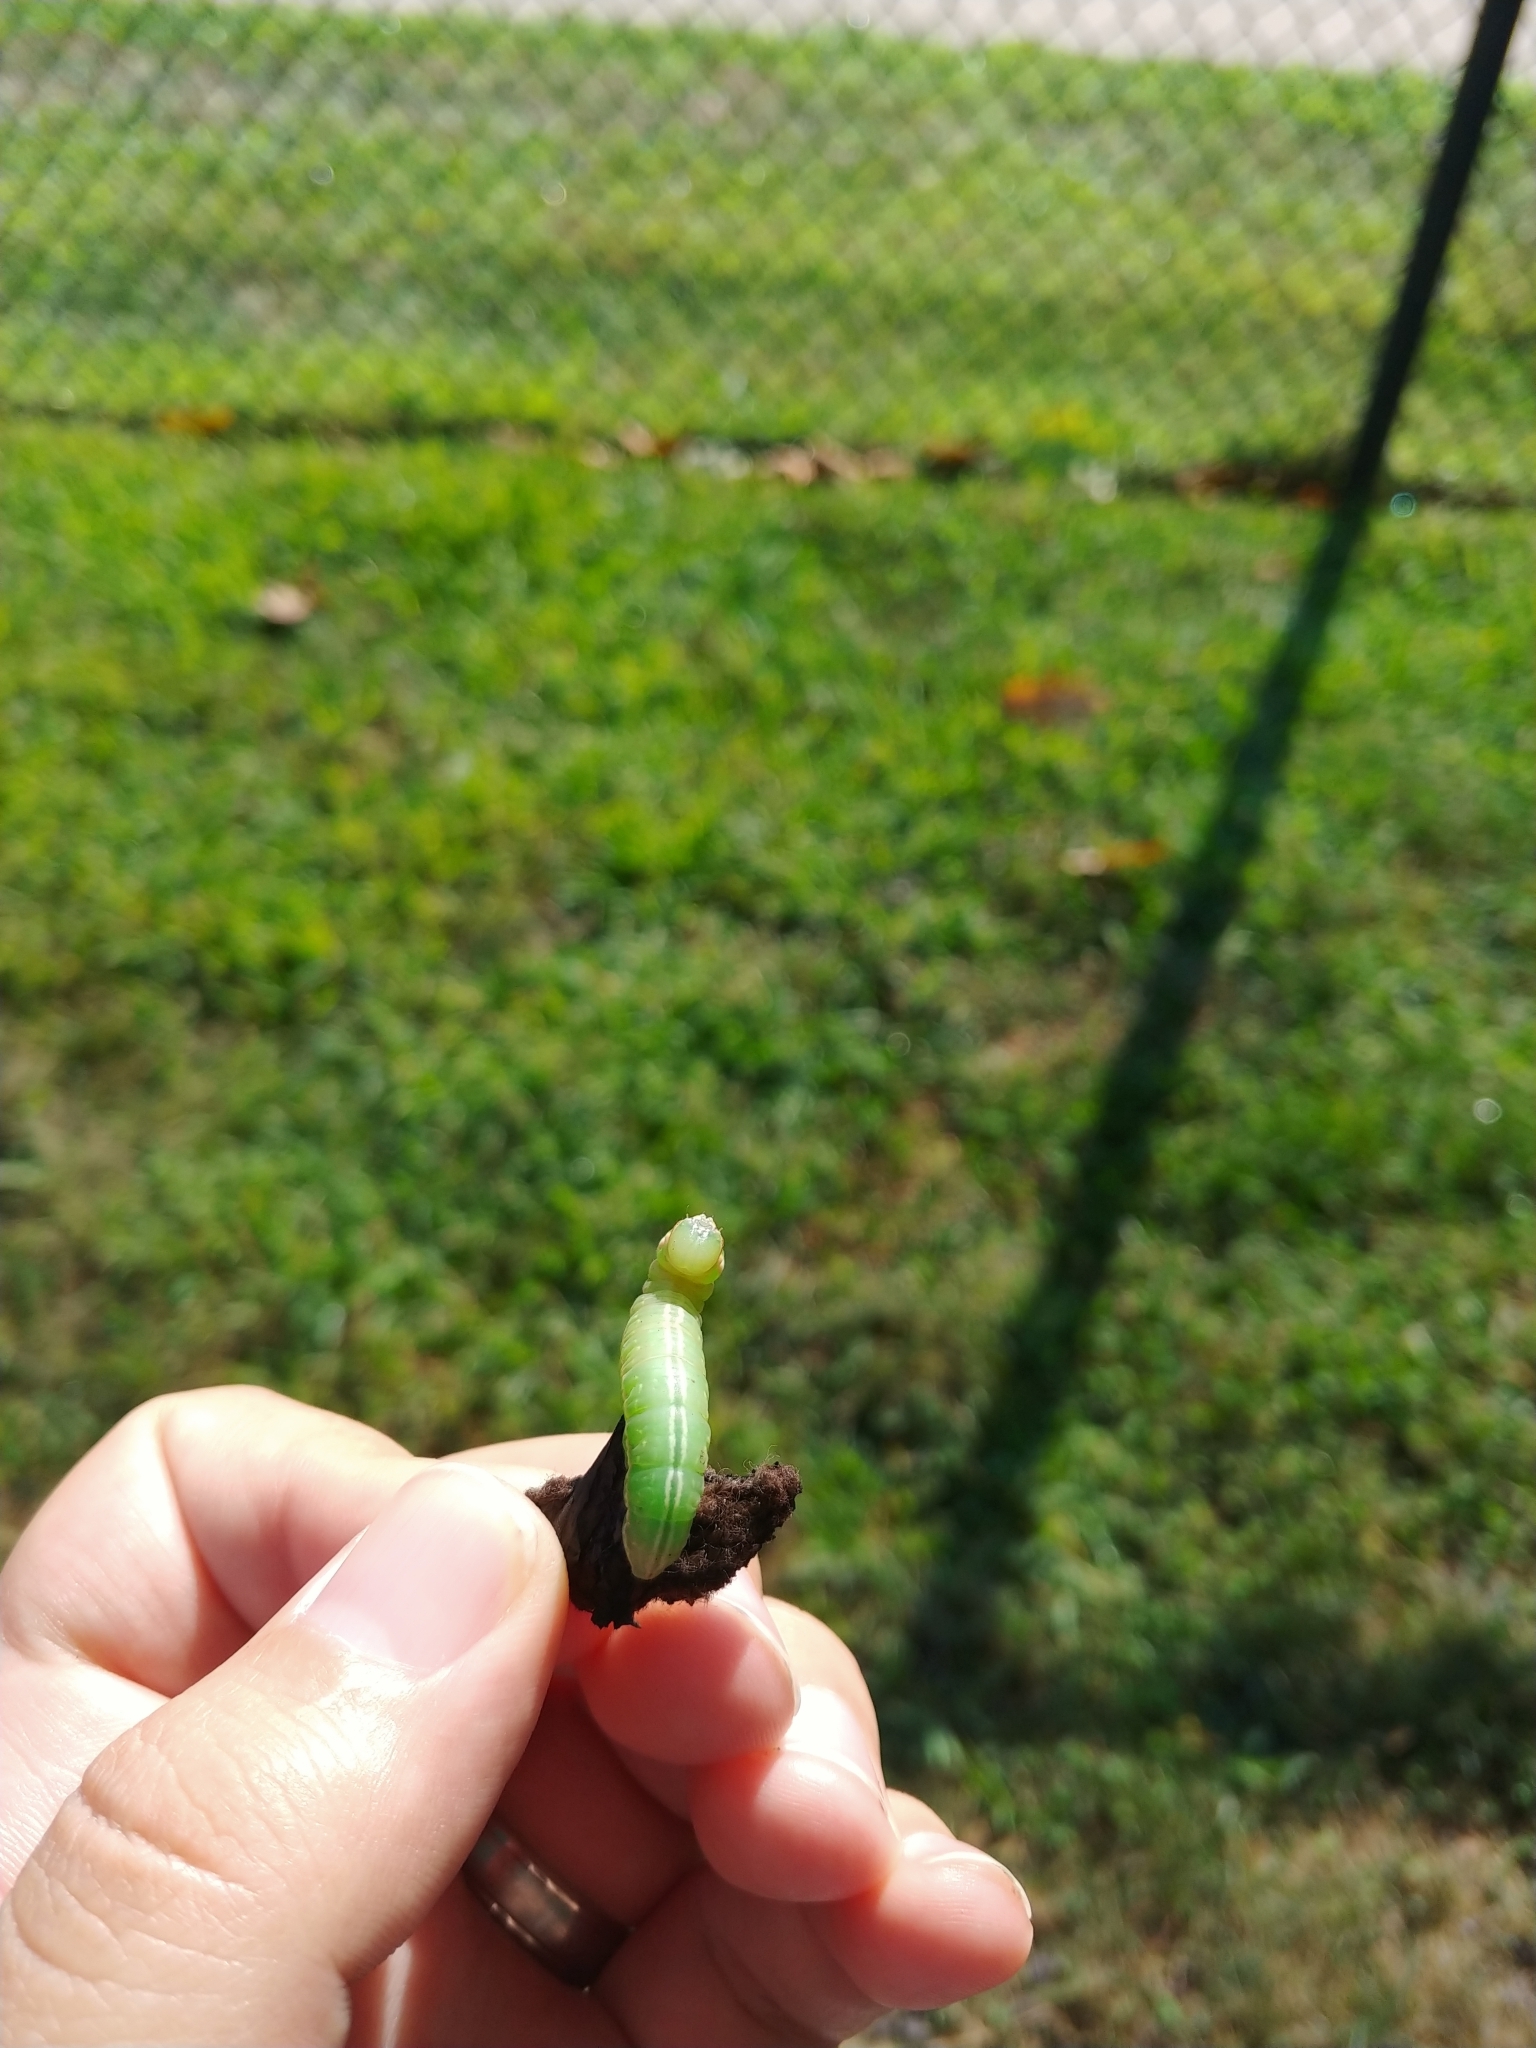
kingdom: Animalia
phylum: Arthropoda
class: Insecta
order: Lepidoptera
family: Notodontidae
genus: Peridea
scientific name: Peridea angulosa
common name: Angulose prominent
